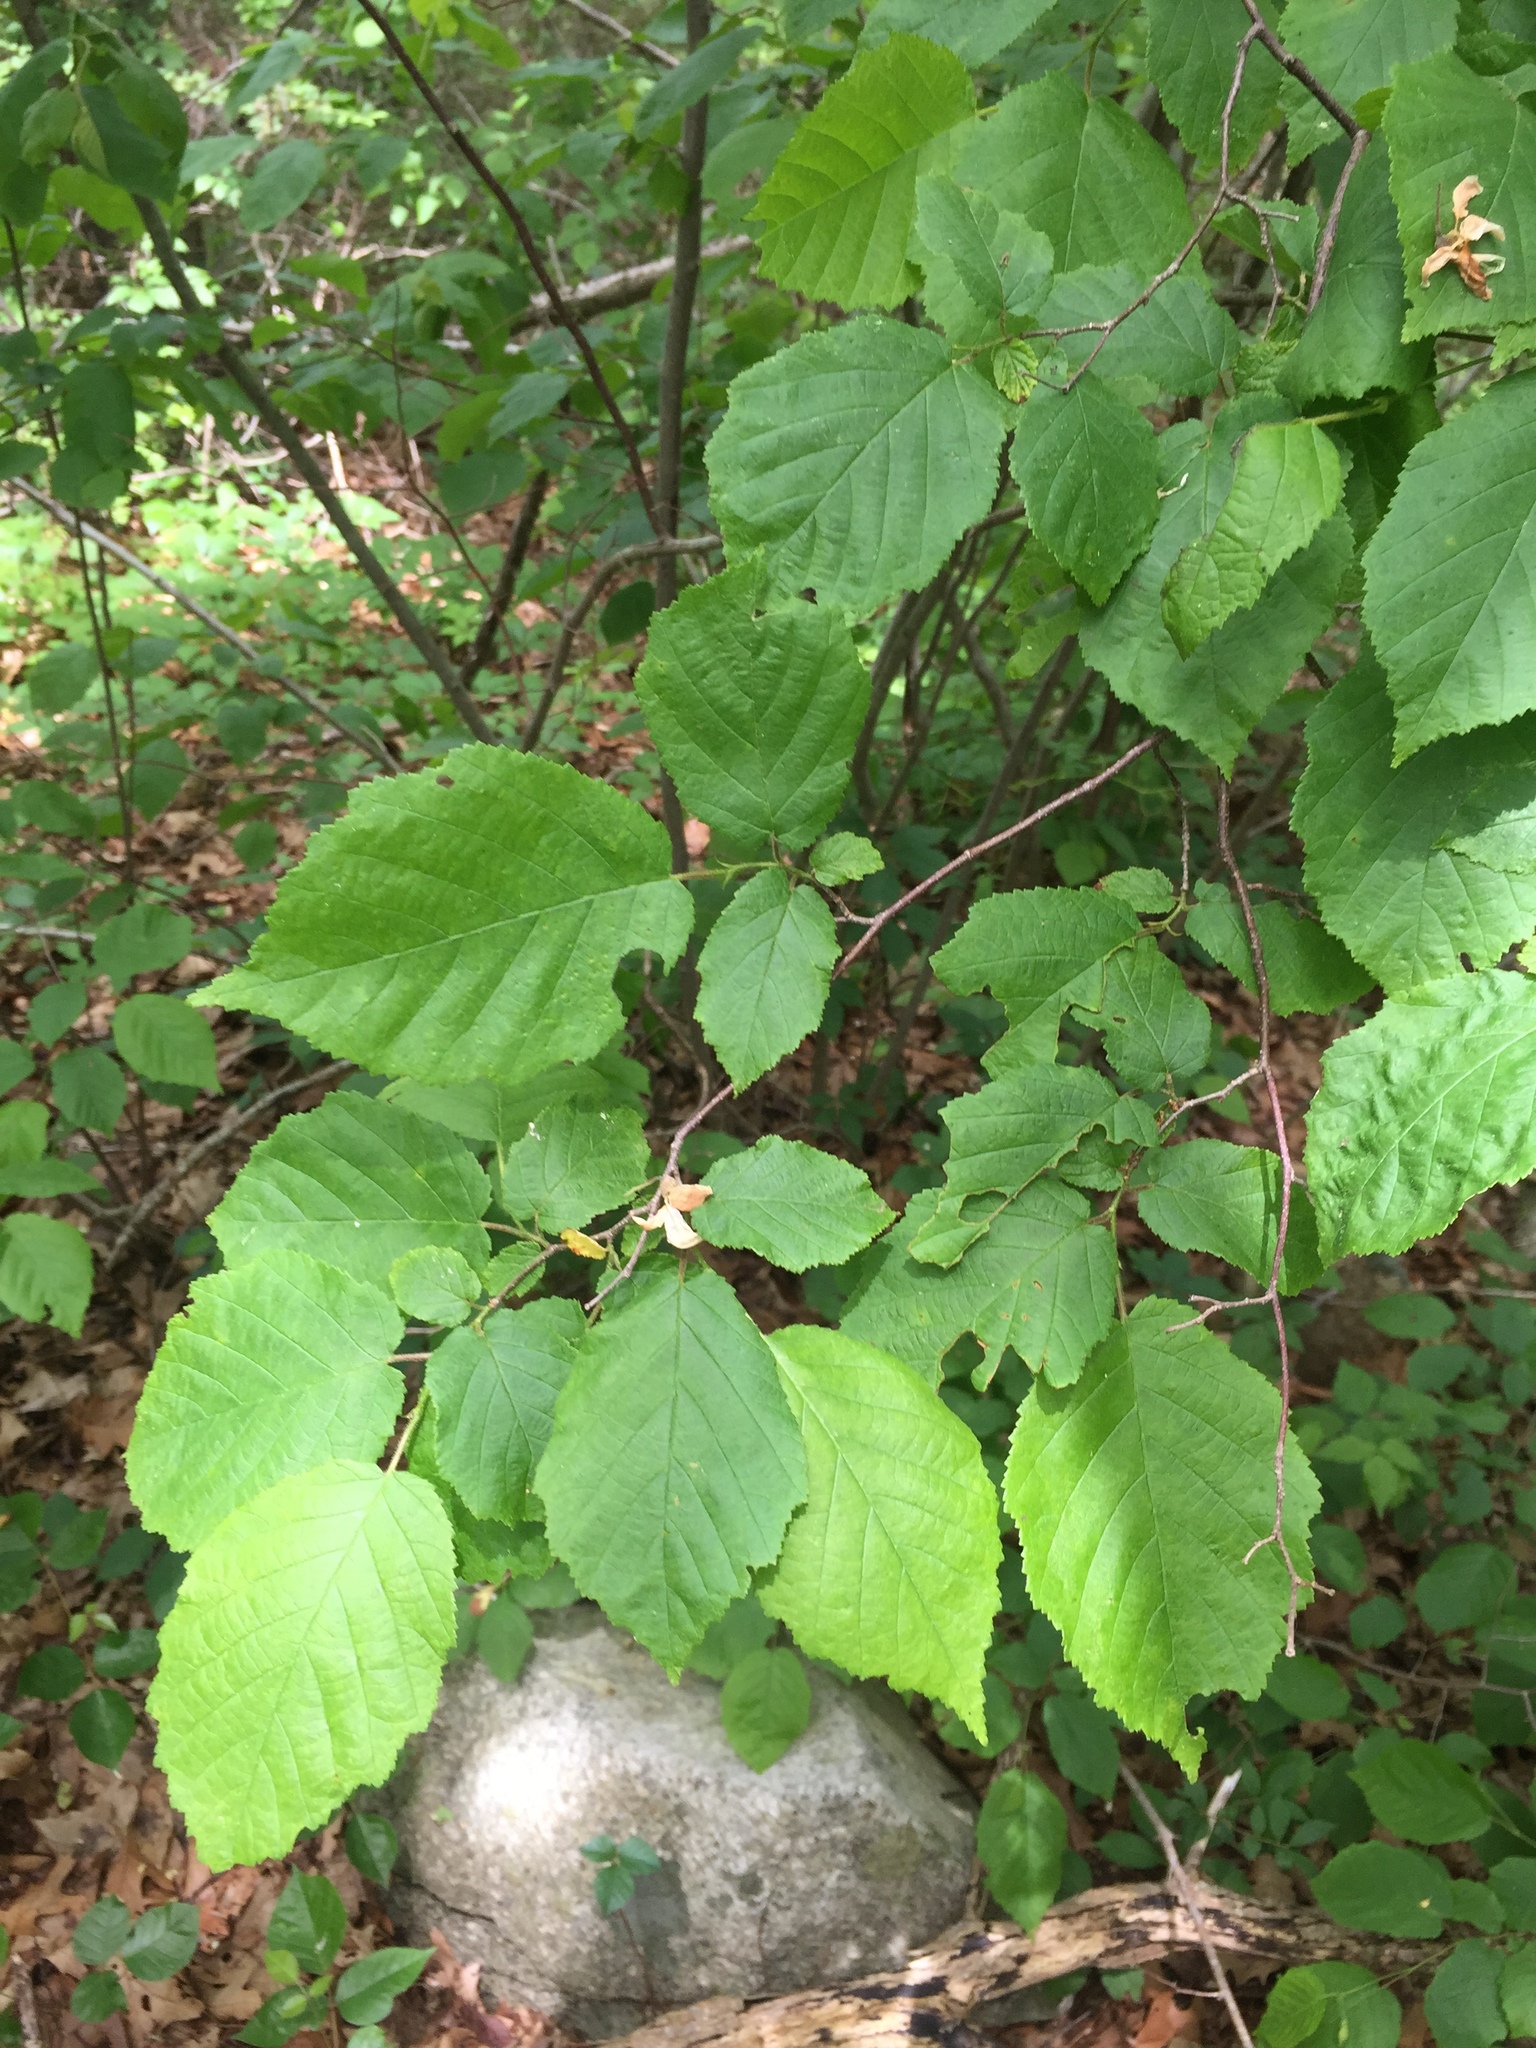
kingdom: Plantae
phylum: Tracheophyta
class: Magnoliopsida
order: Fagales
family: Betulaceae
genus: Corylus
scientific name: Corylus americana
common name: American hazel
